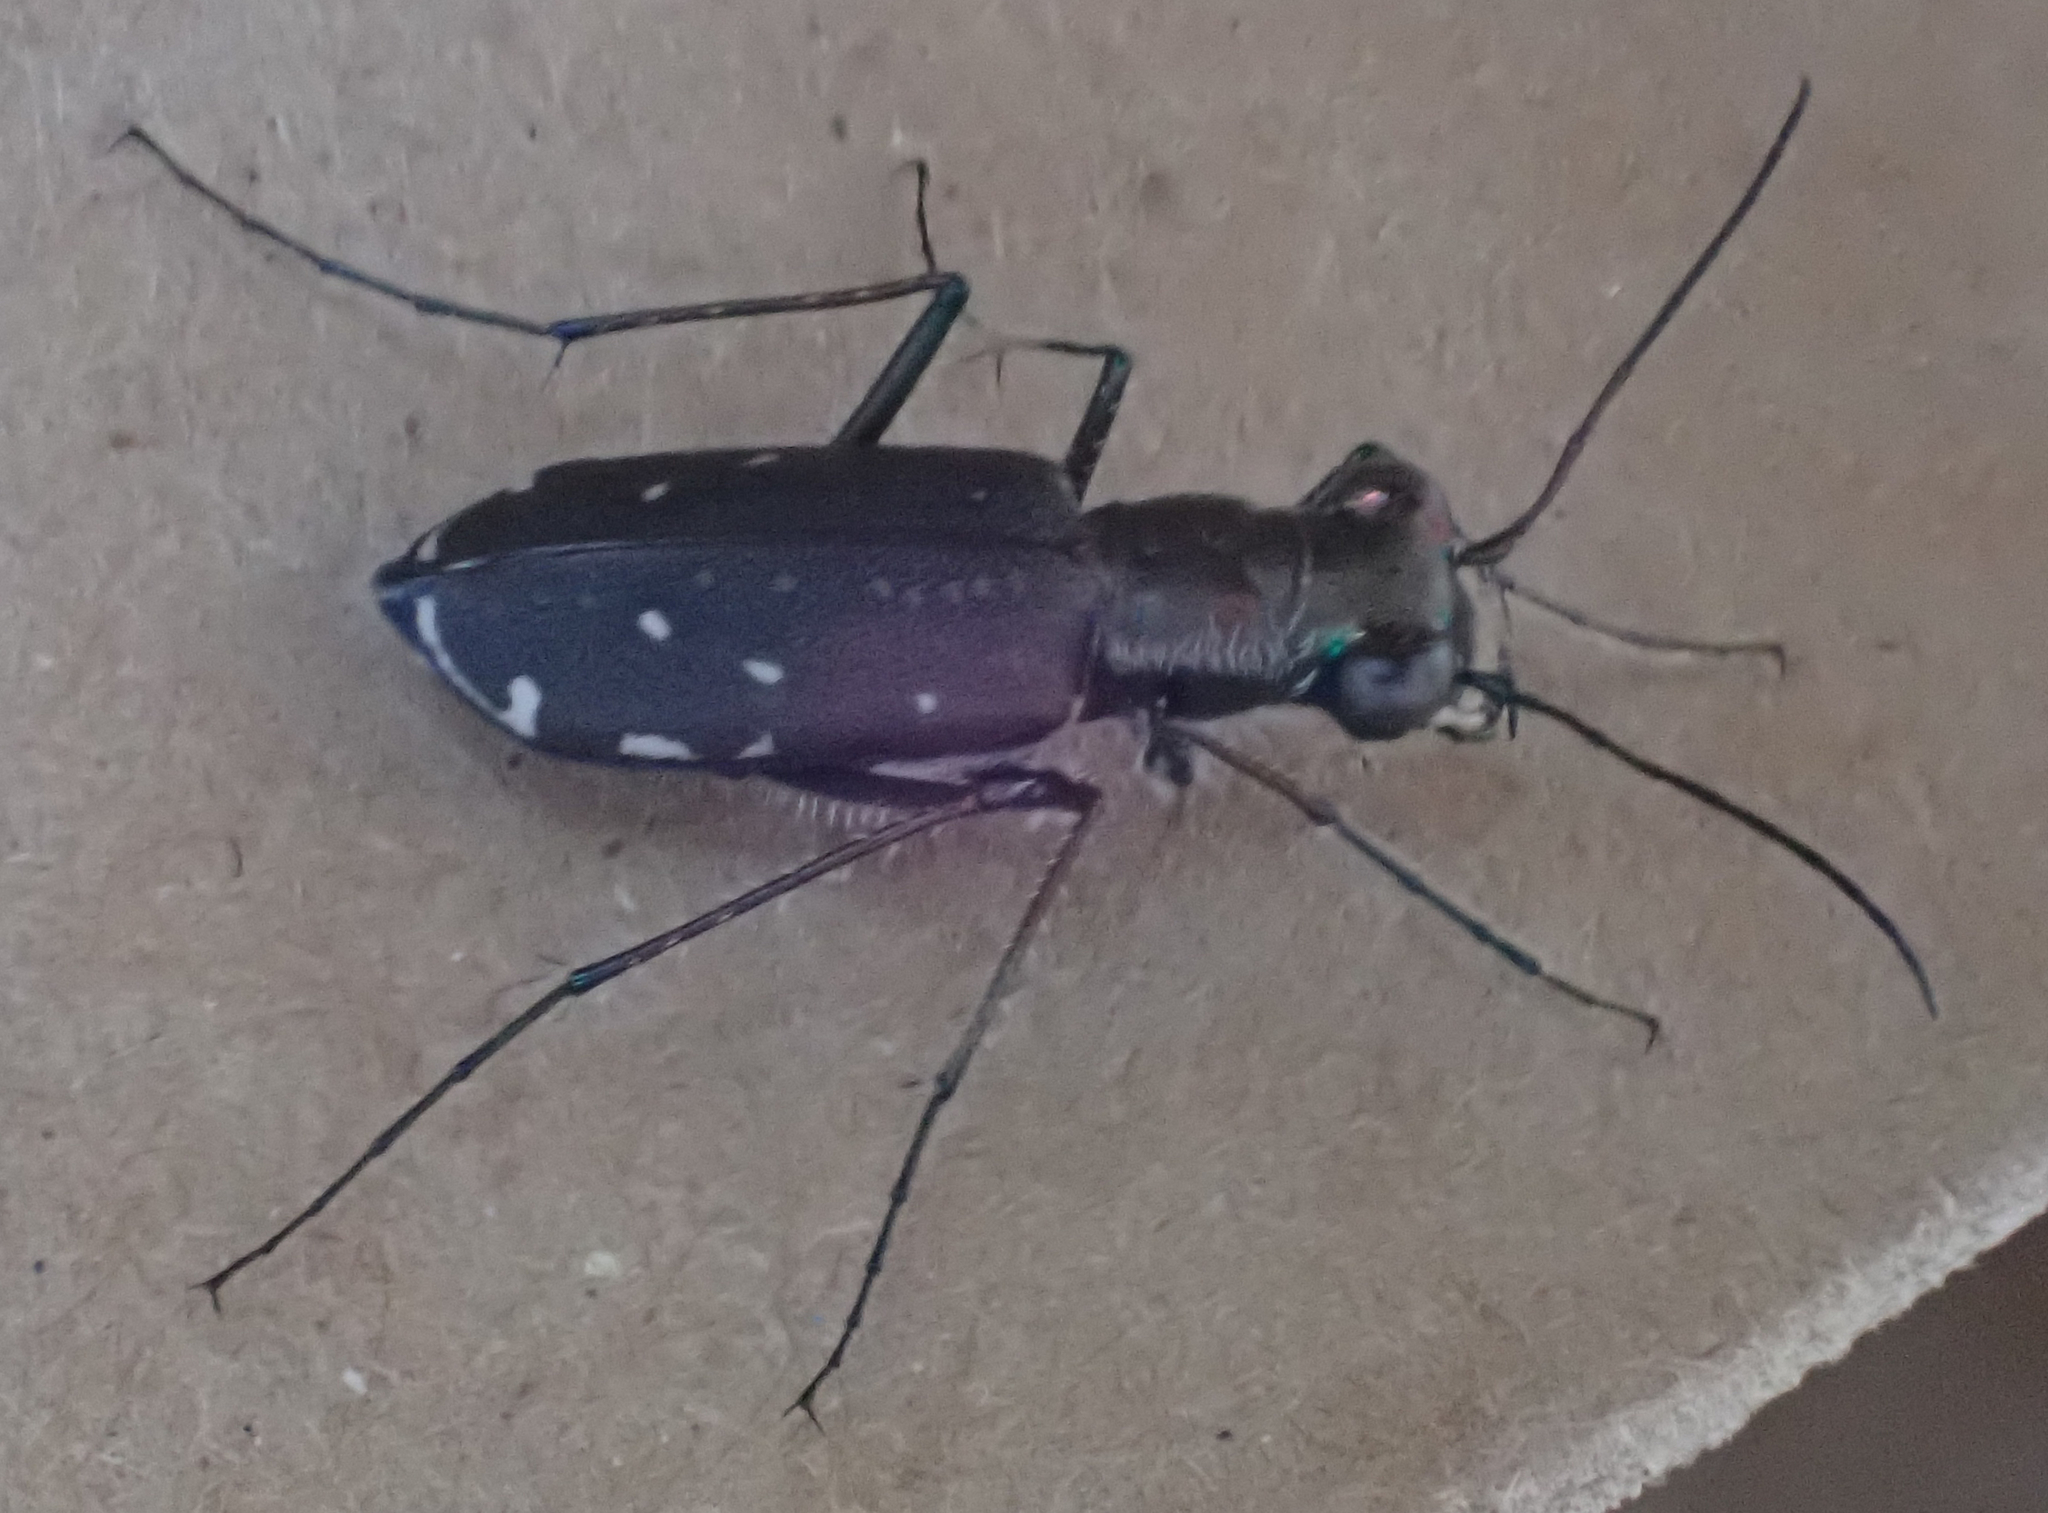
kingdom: Animalia
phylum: Arthropoda
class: Insecta
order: Coleoptera
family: Carabidae
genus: Cicindela
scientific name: Cicindela punctulata
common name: Punctured tiger beetle
